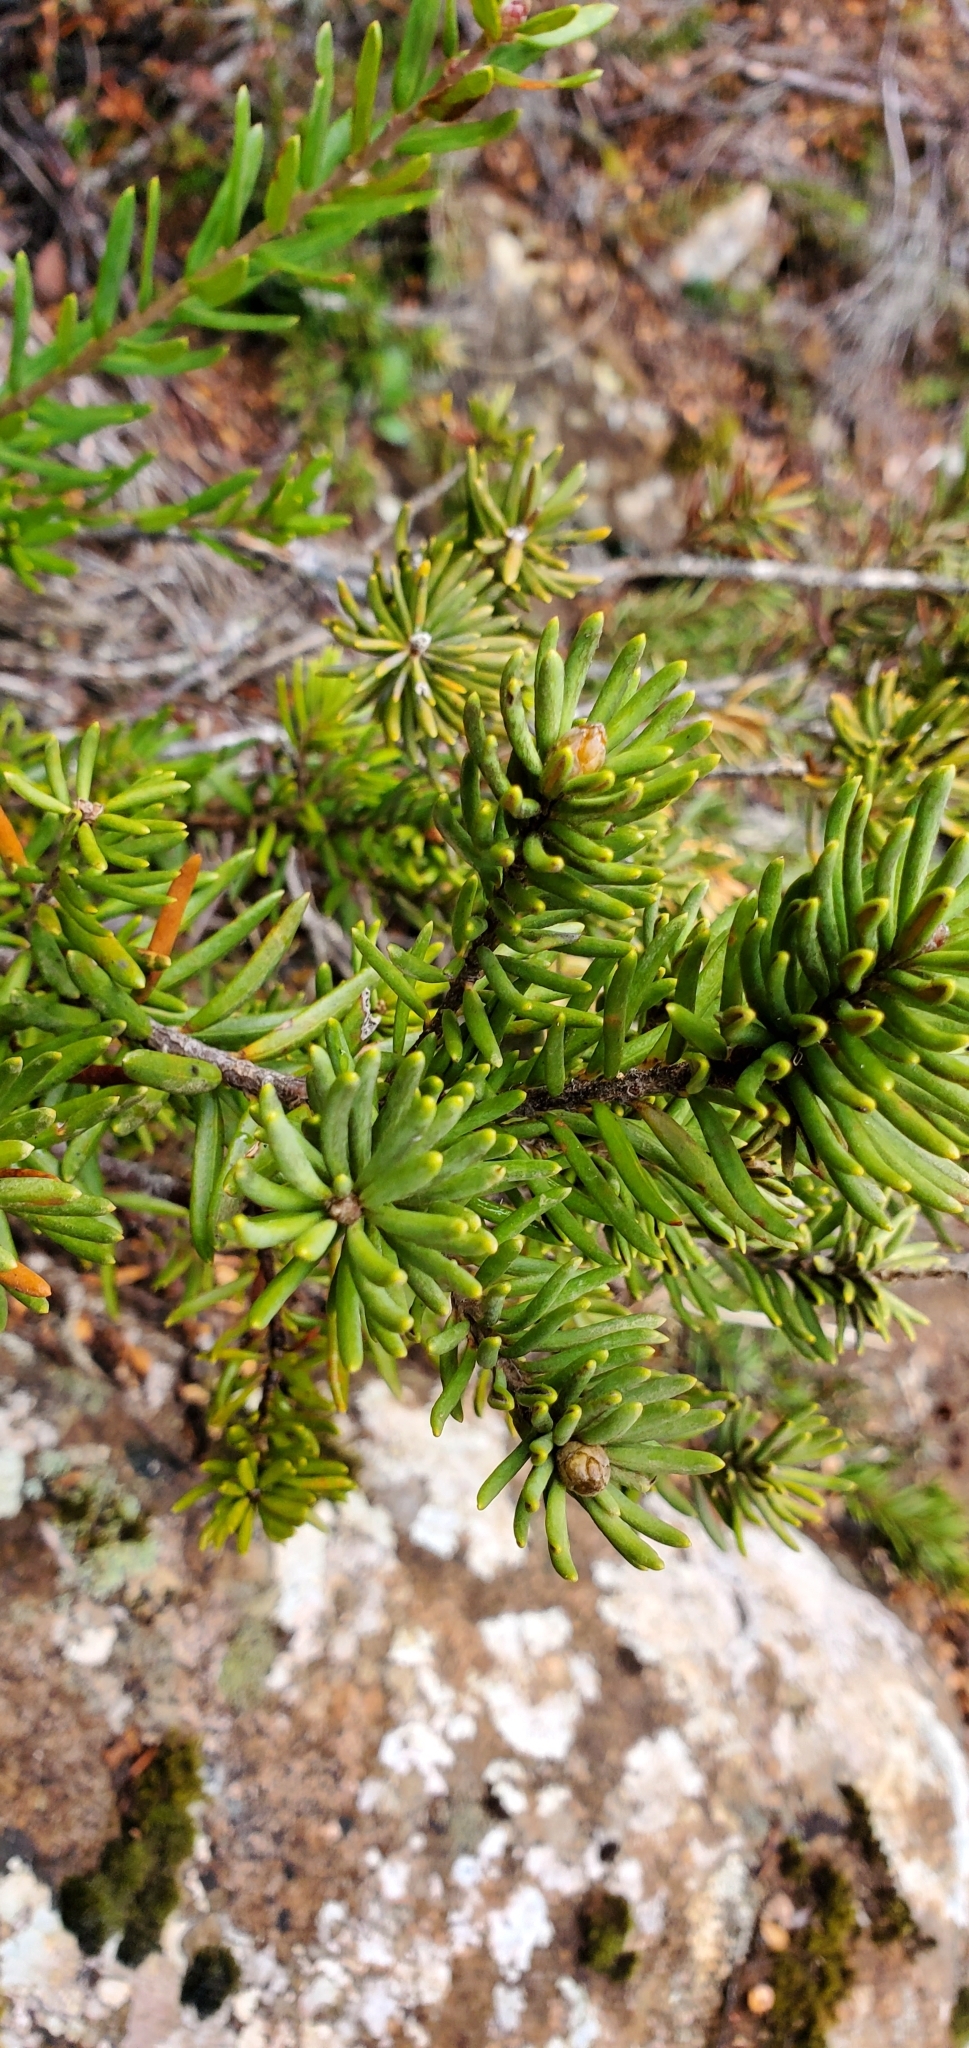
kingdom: Plantae
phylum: Tracheophyta
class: Magnoliopsida
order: Proteales
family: Proteaceae
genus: Orites
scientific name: Orites revolutus
